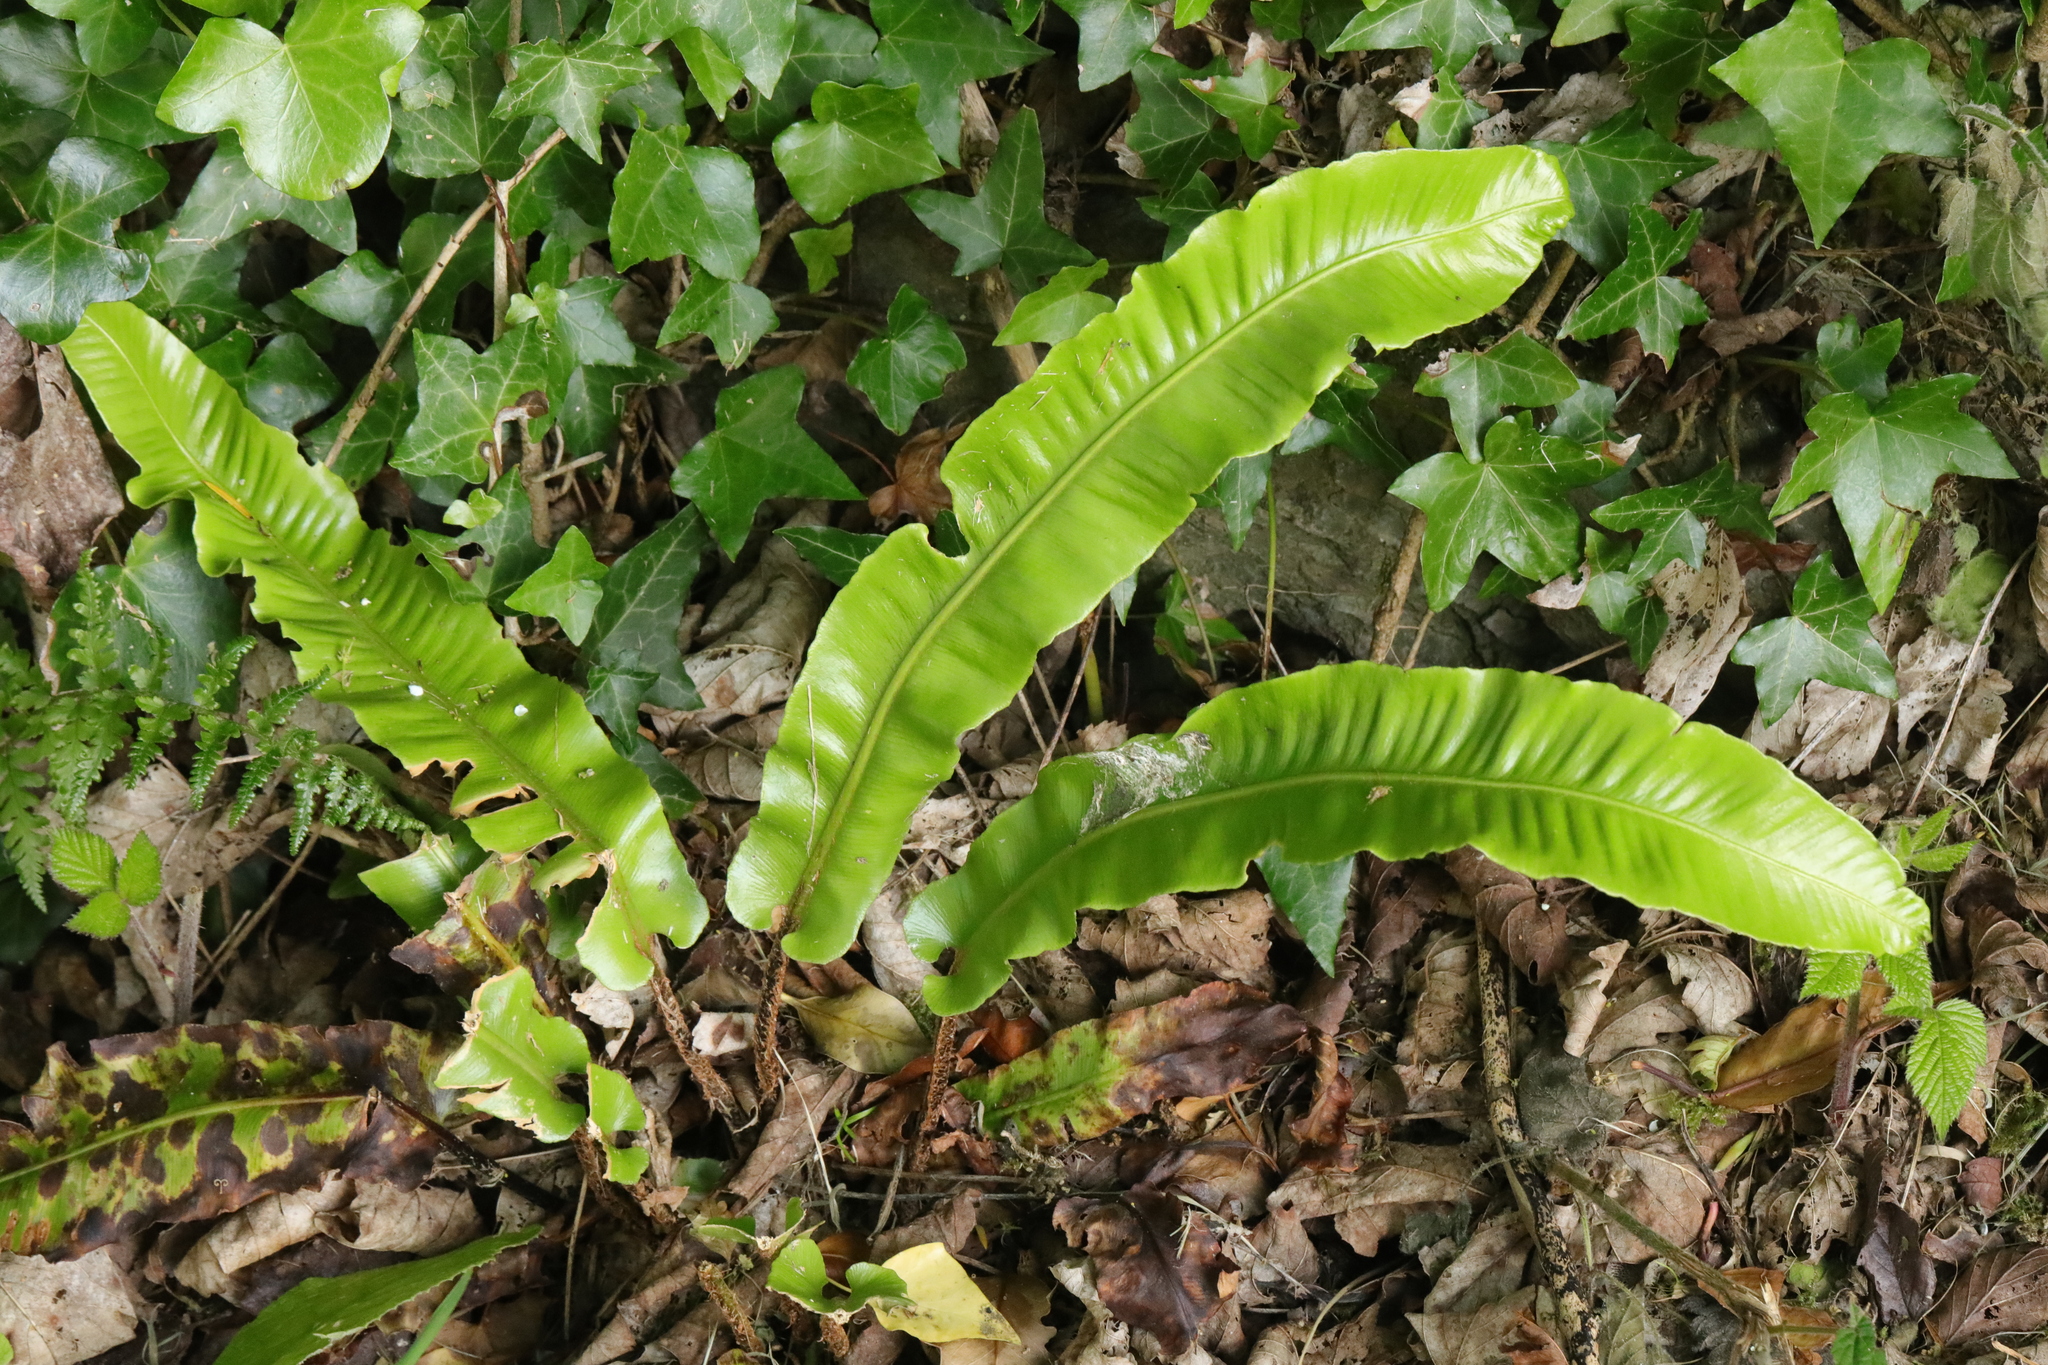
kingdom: Plantae
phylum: Tracheophyta
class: Polypodiopsida
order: Polypodiales
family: Aspleniaceae
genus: Asplenium
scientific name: Asplenium scolopendrium
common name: Hart's-tongue fern
